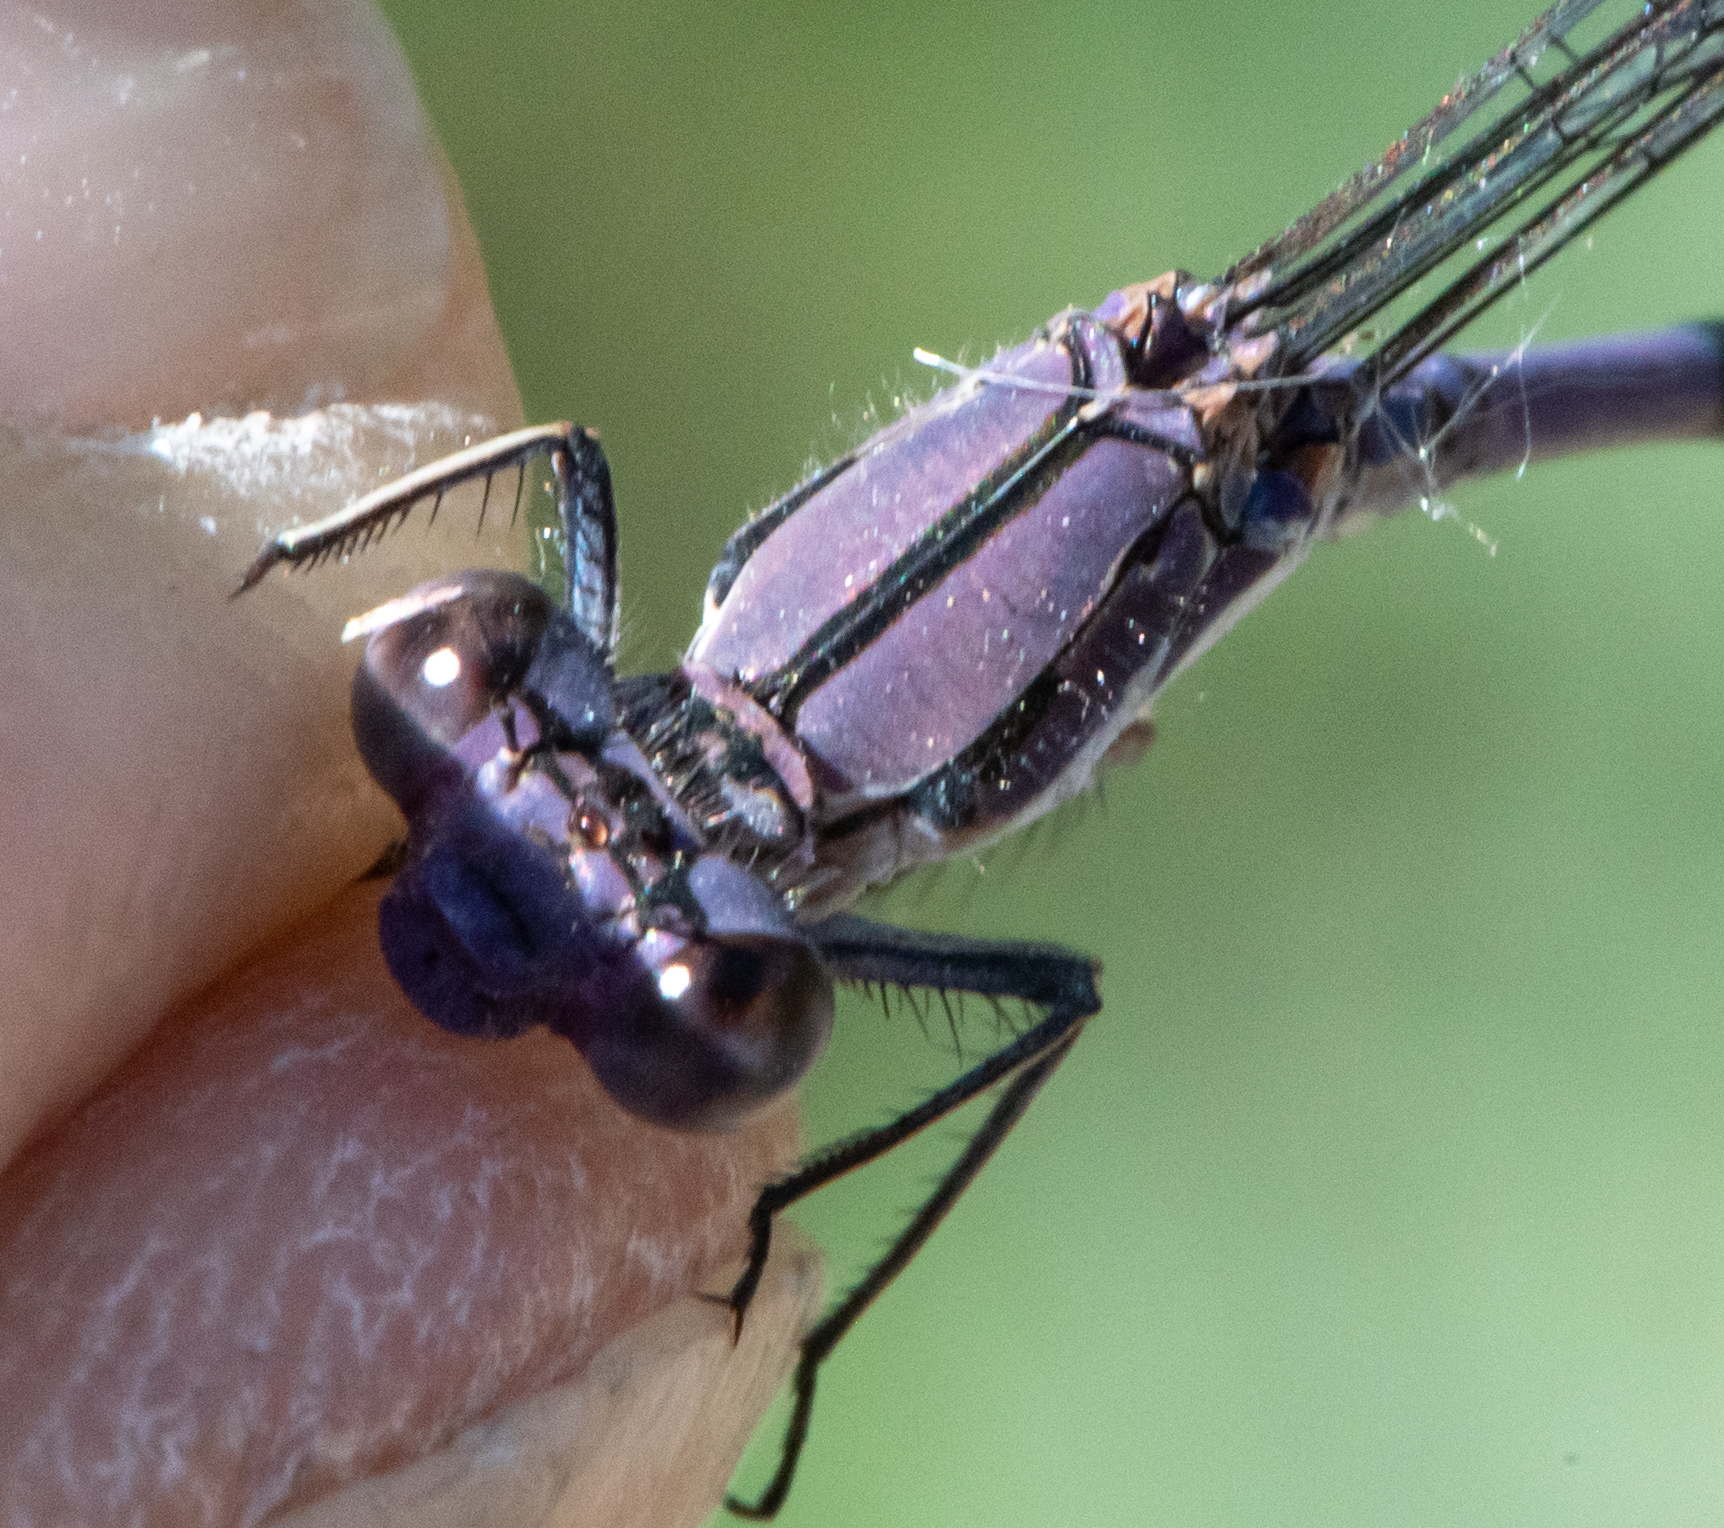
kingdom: Animalia
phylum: Arthropoda
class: Insecta
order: Odonata
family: Coenagrionidae
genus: Argia
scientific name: Argia emma
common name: Emma's dancer
